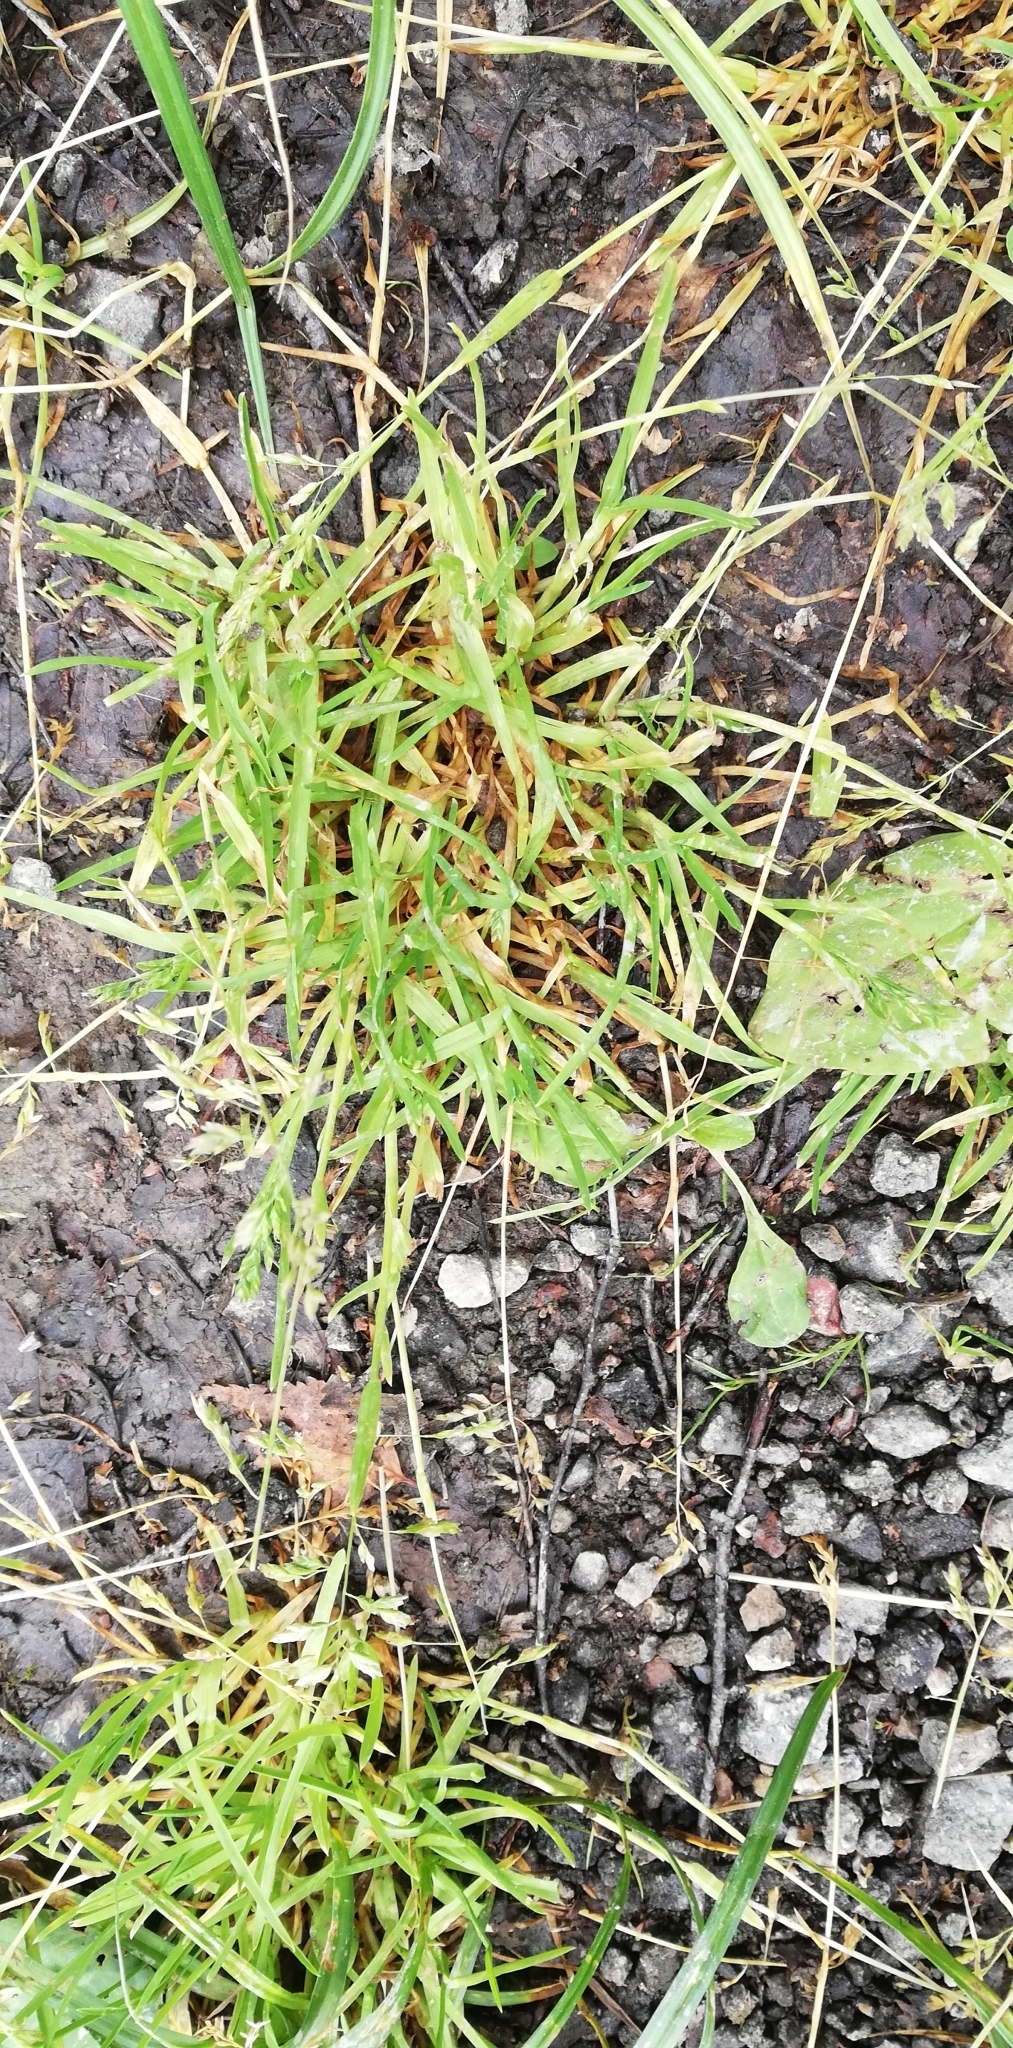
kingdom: Plantae
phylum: Tracheophyta
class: Liliopsida
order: Poales
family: Poaceae
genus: Poa
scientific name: Poa annua
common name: Annual bluegrass
